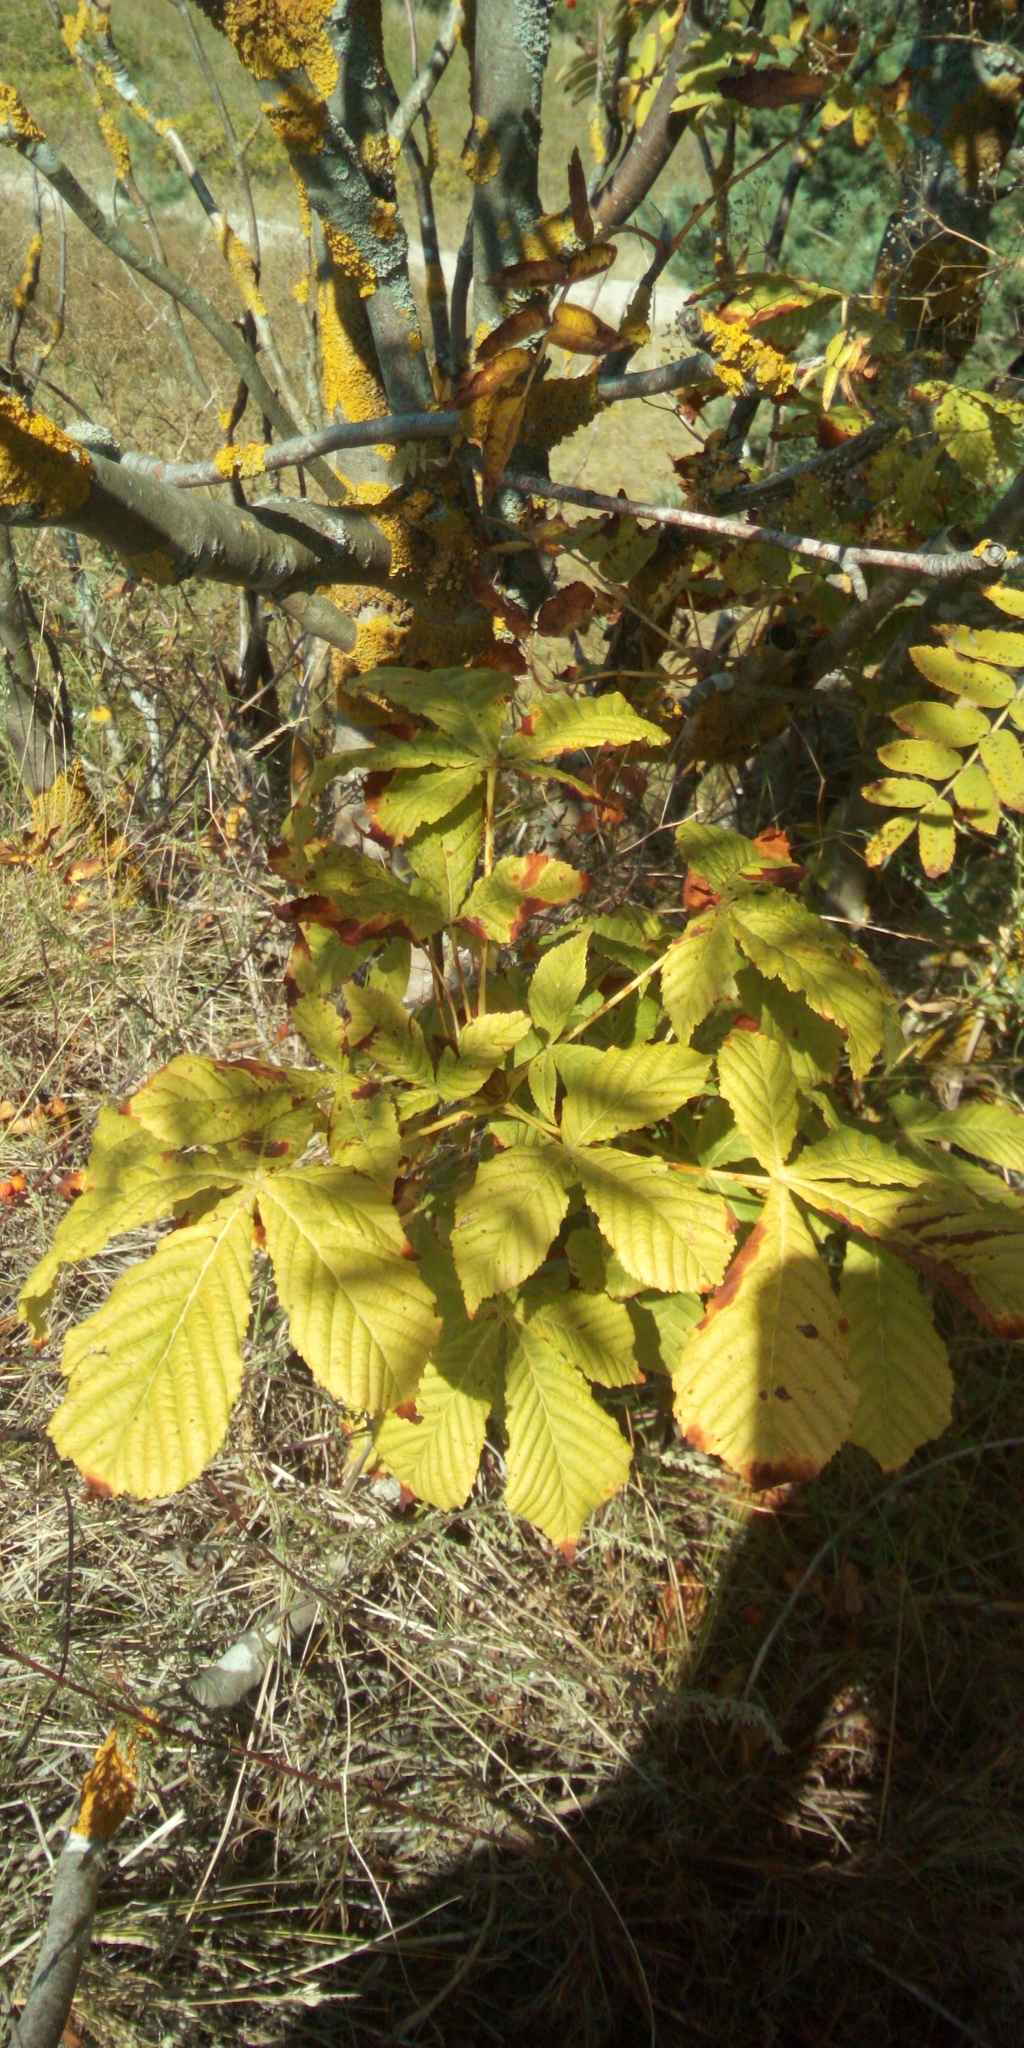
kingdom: Plantae
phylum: Tracheophyta
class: Magnoliopsida
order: Sapindales
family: Sapindaceae
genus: Aesculus
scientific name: Aesculus hippocastanum
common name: Horse-chestnut
